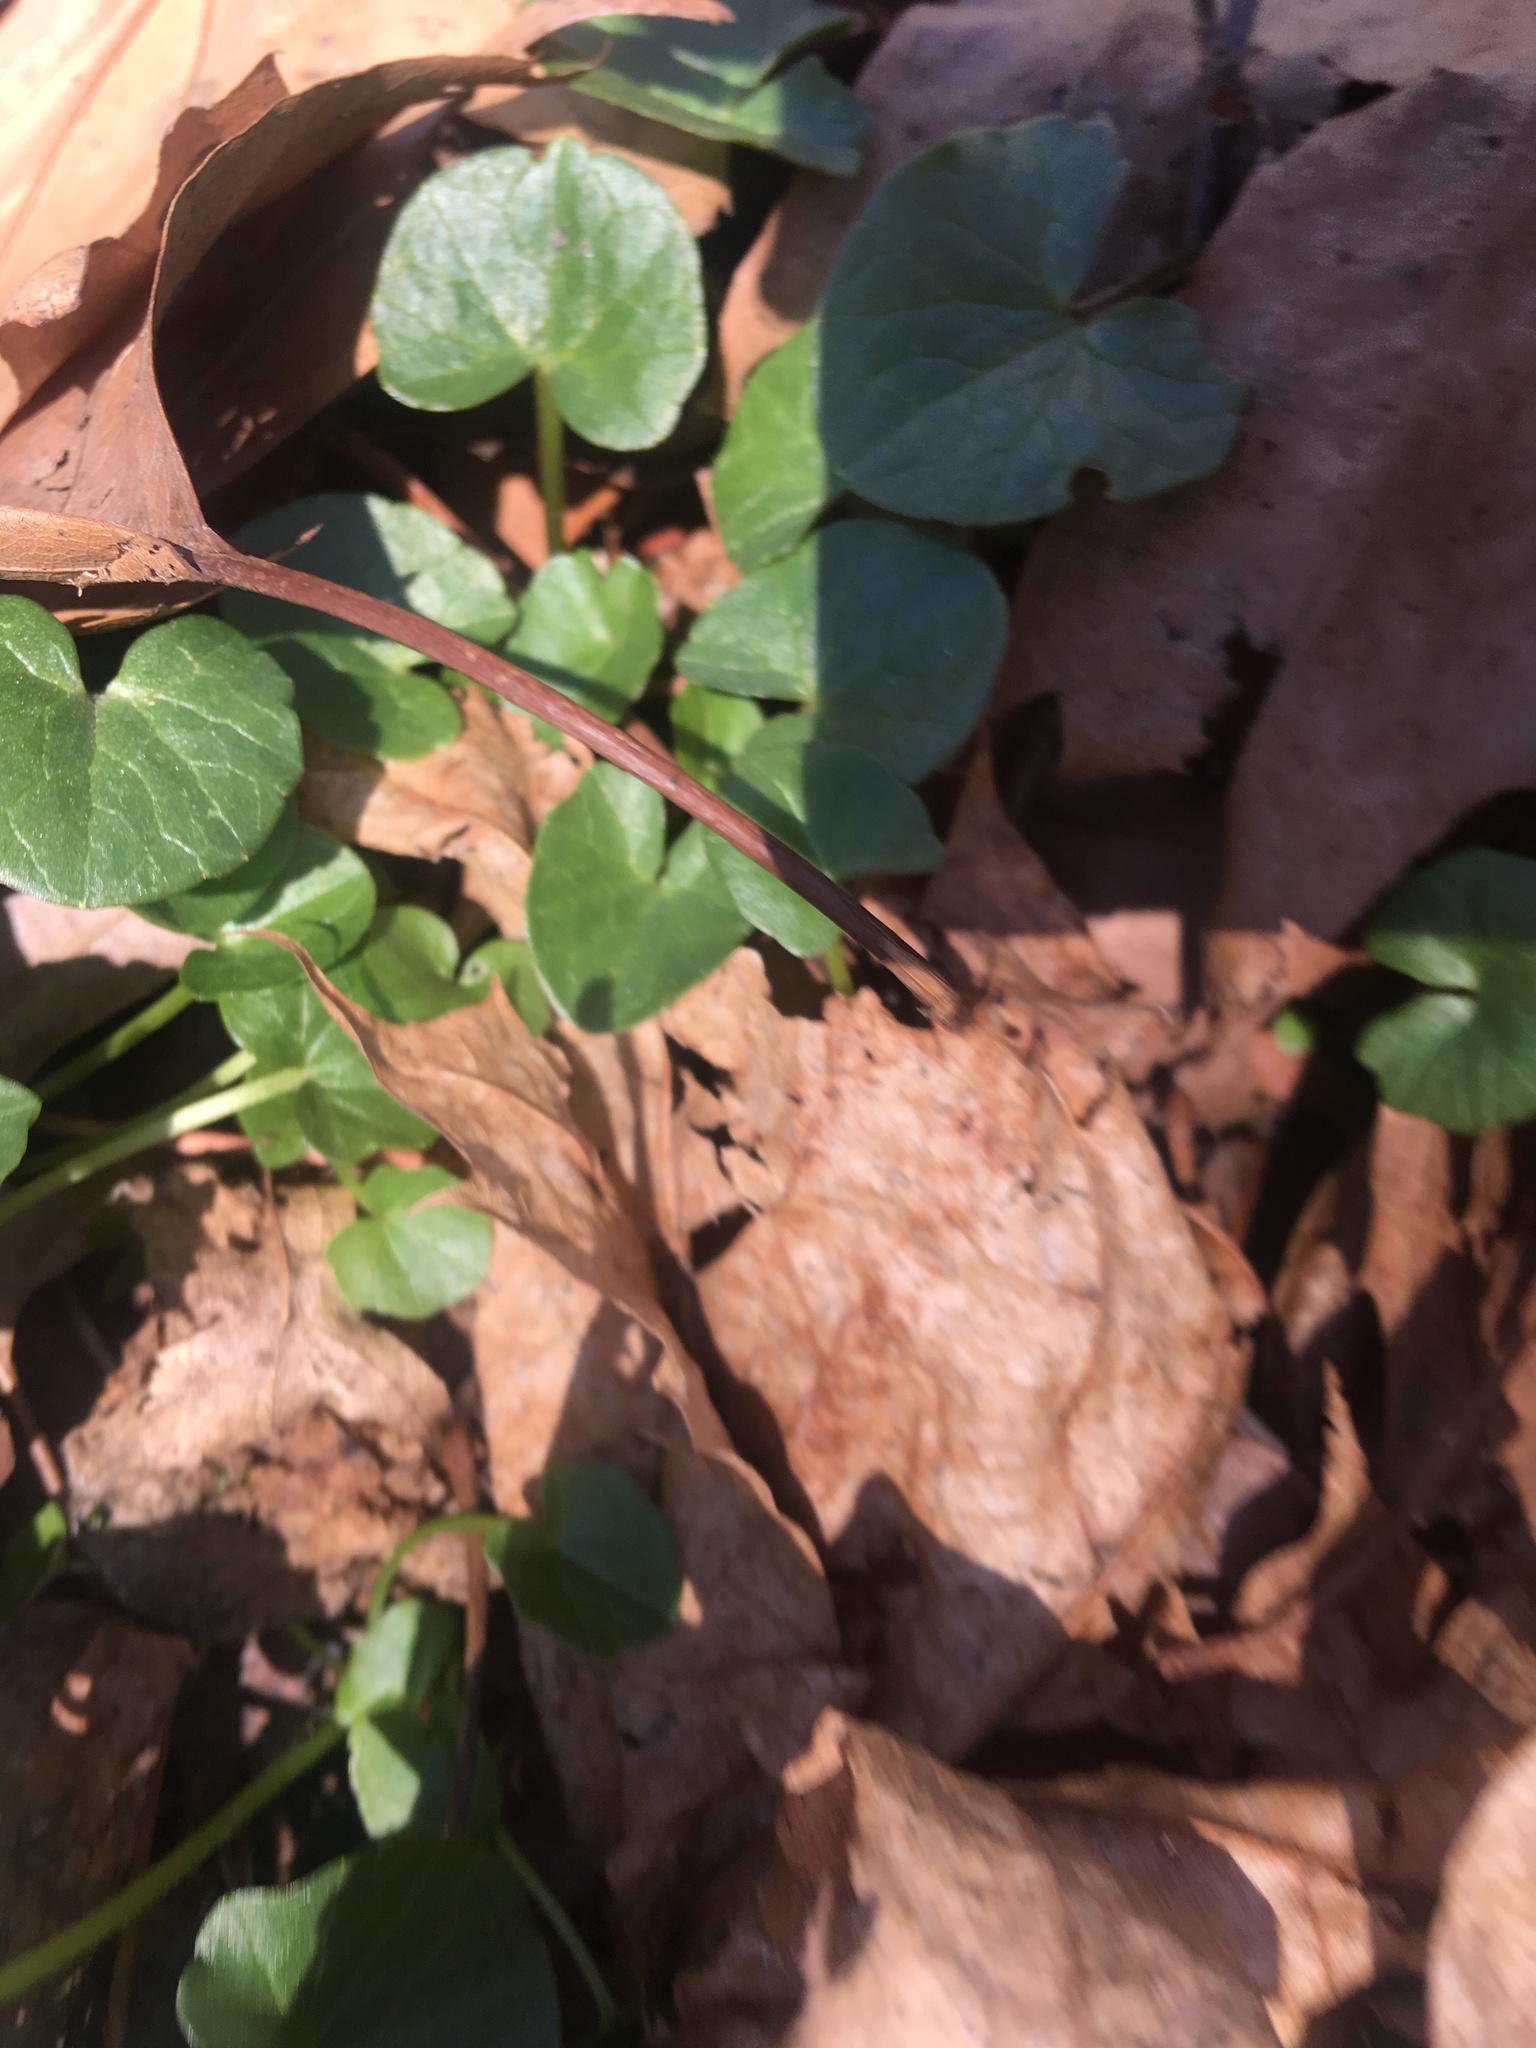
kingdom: Plantae
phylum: Tracheophyta
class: Magnoliopsida
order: Ranunculales
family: Ranunculaceae
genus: Ficaria
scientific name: Ficaria verna
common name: Lesser celandine
